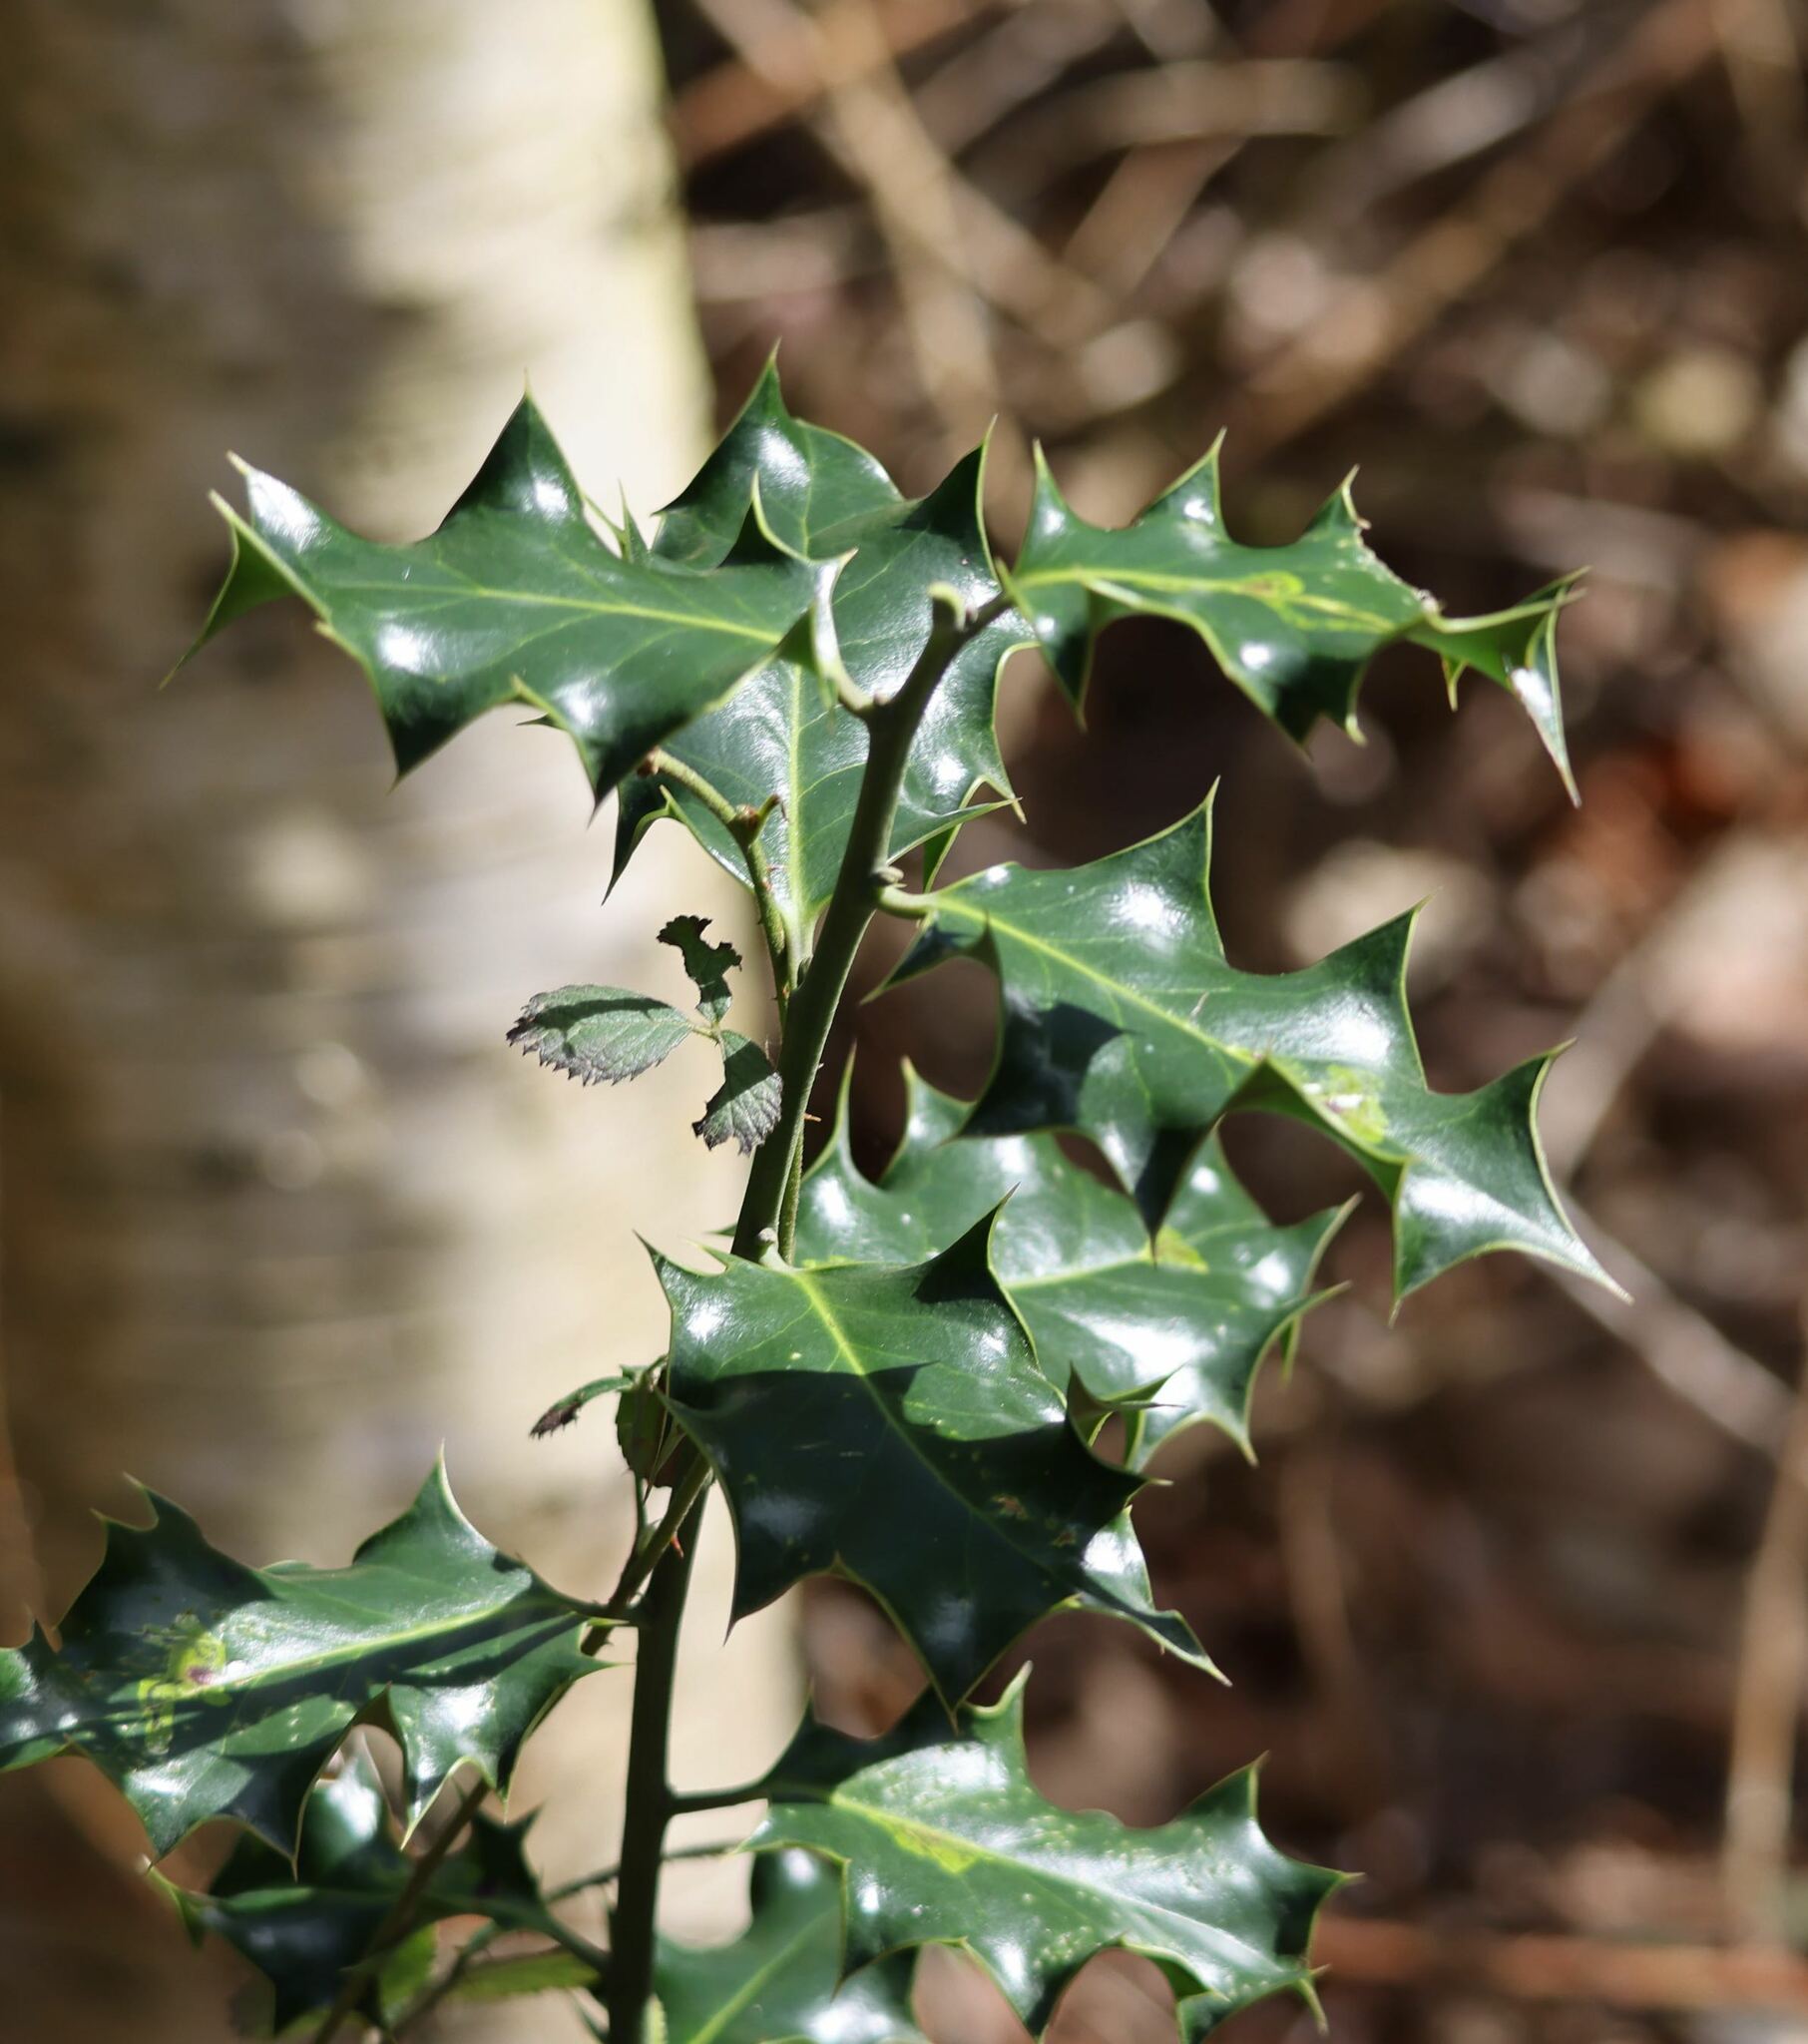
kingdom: Plantae
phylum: Tracheophyta
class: Magnoliopsida
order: Aquifoliales
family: Aquifoliaceae
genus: Ilex
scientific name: Ilex aquifolium
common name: English holly
